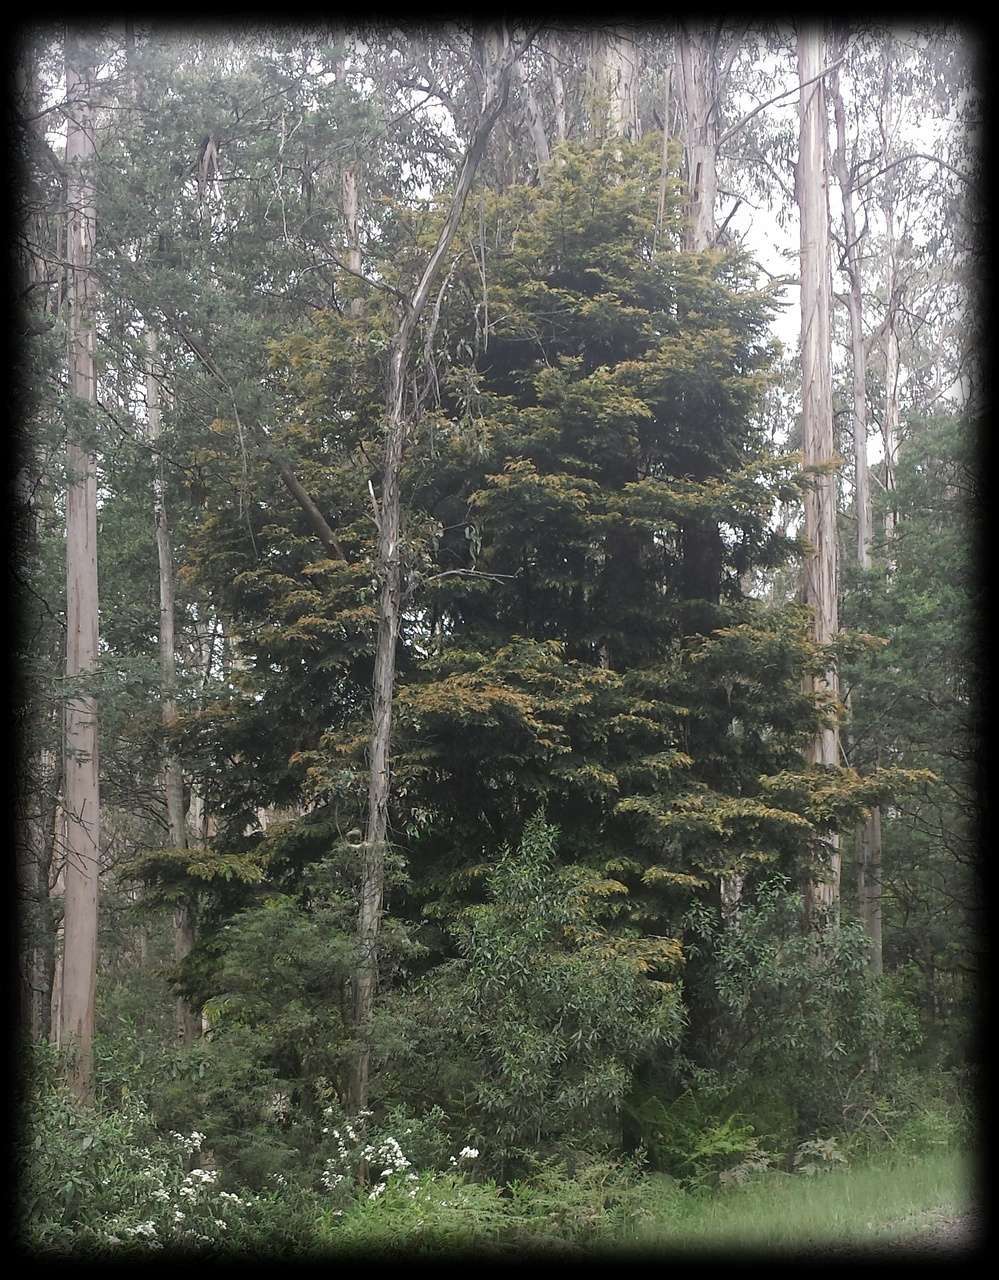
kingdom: Plantae
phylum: Tracheophyta
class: Magnoliopsida
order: Fagales
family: Nothofagaceae
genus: Nothofagus
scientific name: Nothofagus cunninghamii
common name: Myrtle beech
